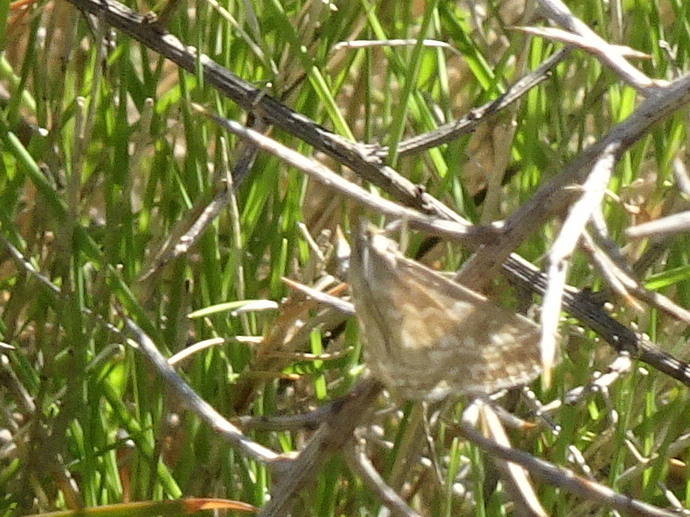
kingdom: Animalia
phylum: Arthropoda
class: Insecta
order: Lepidoptera
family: Crambidae
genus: Evergestis
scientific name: Evergestis frumentalis
